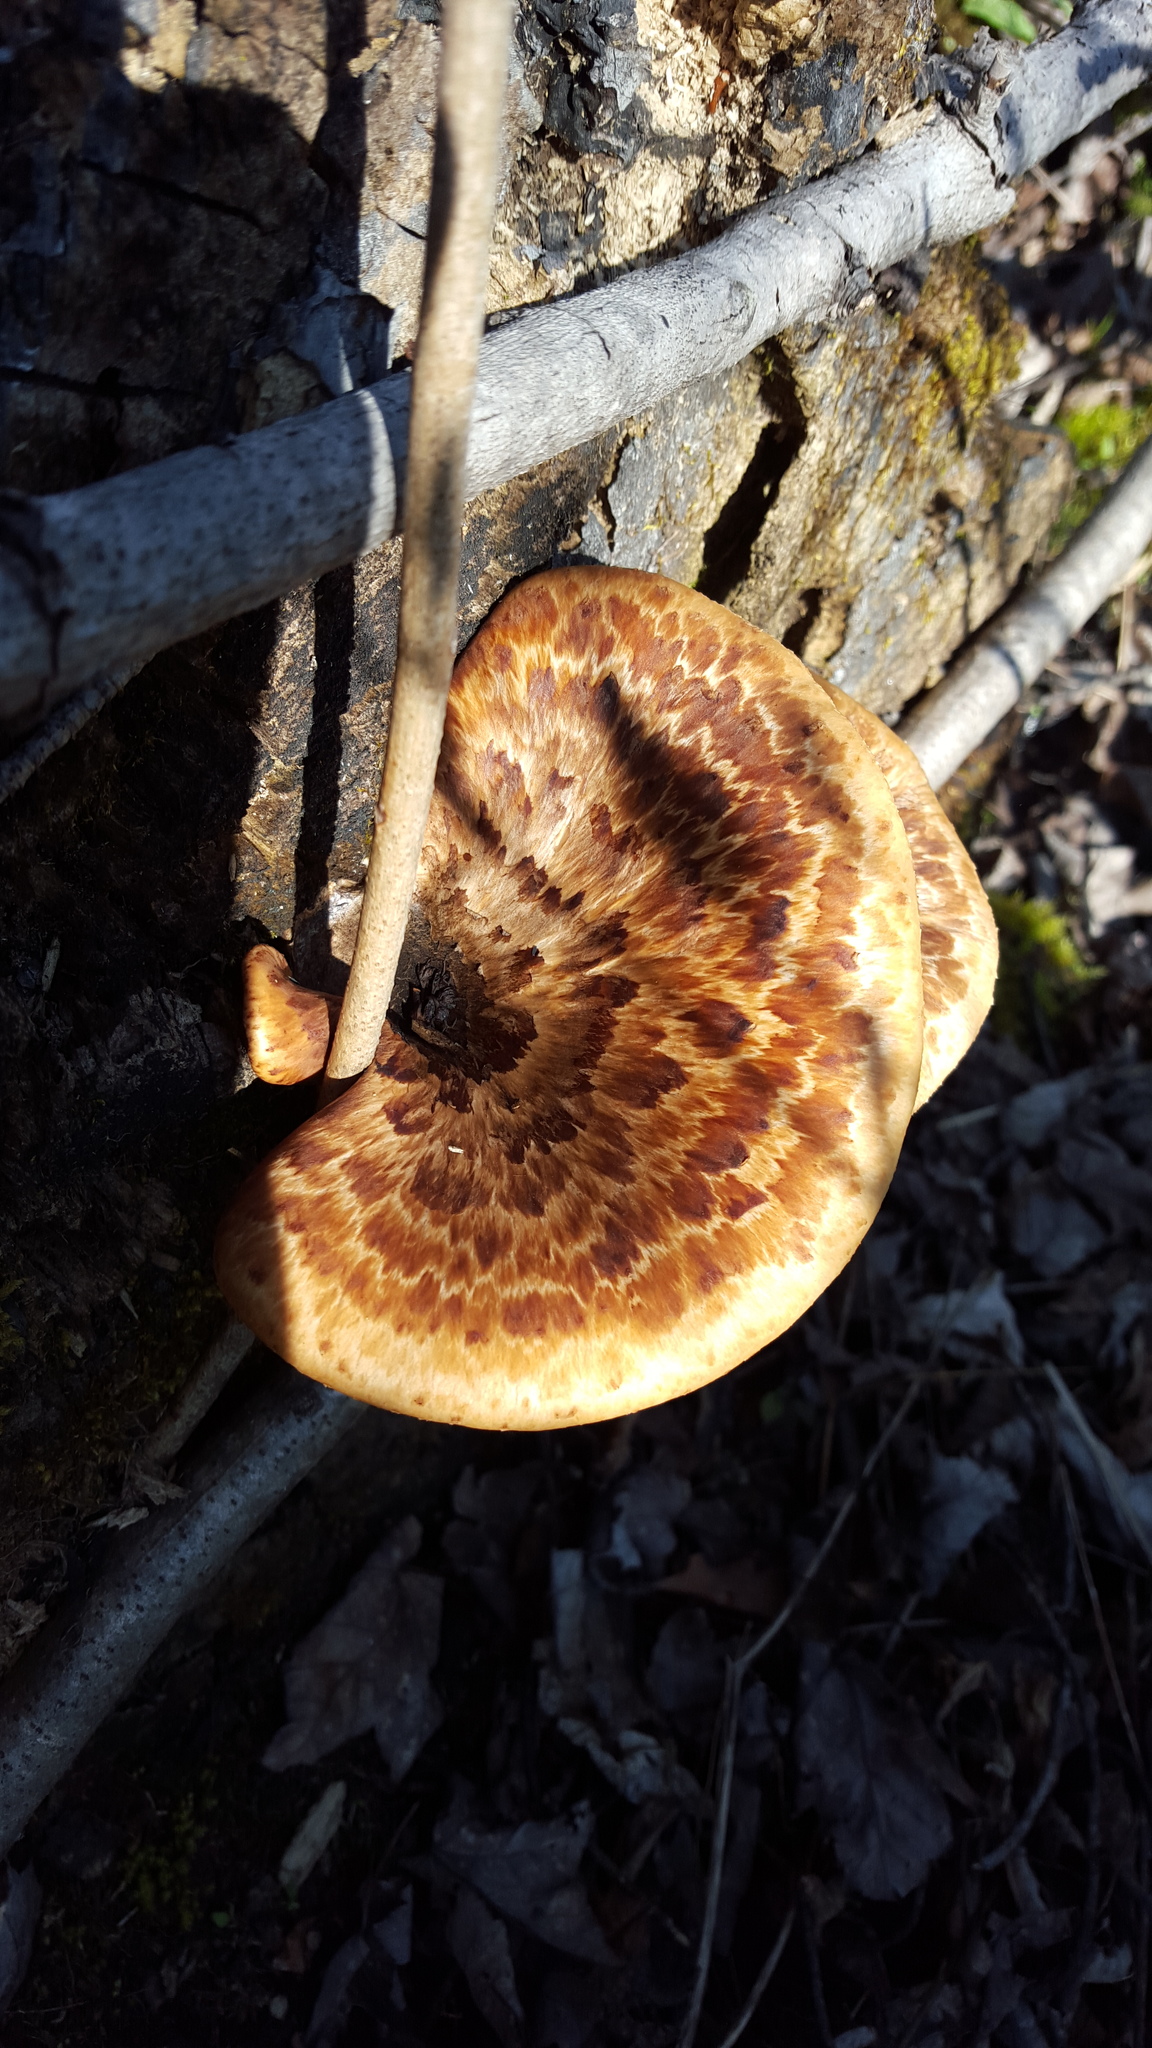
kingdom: Fungi
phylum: Basidiomycota
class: Agaricomycetes
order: Polyporales
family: Polyporaceae
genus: Cerioporus
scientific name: Cerioporus squamosus
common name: Dryad's saddle
